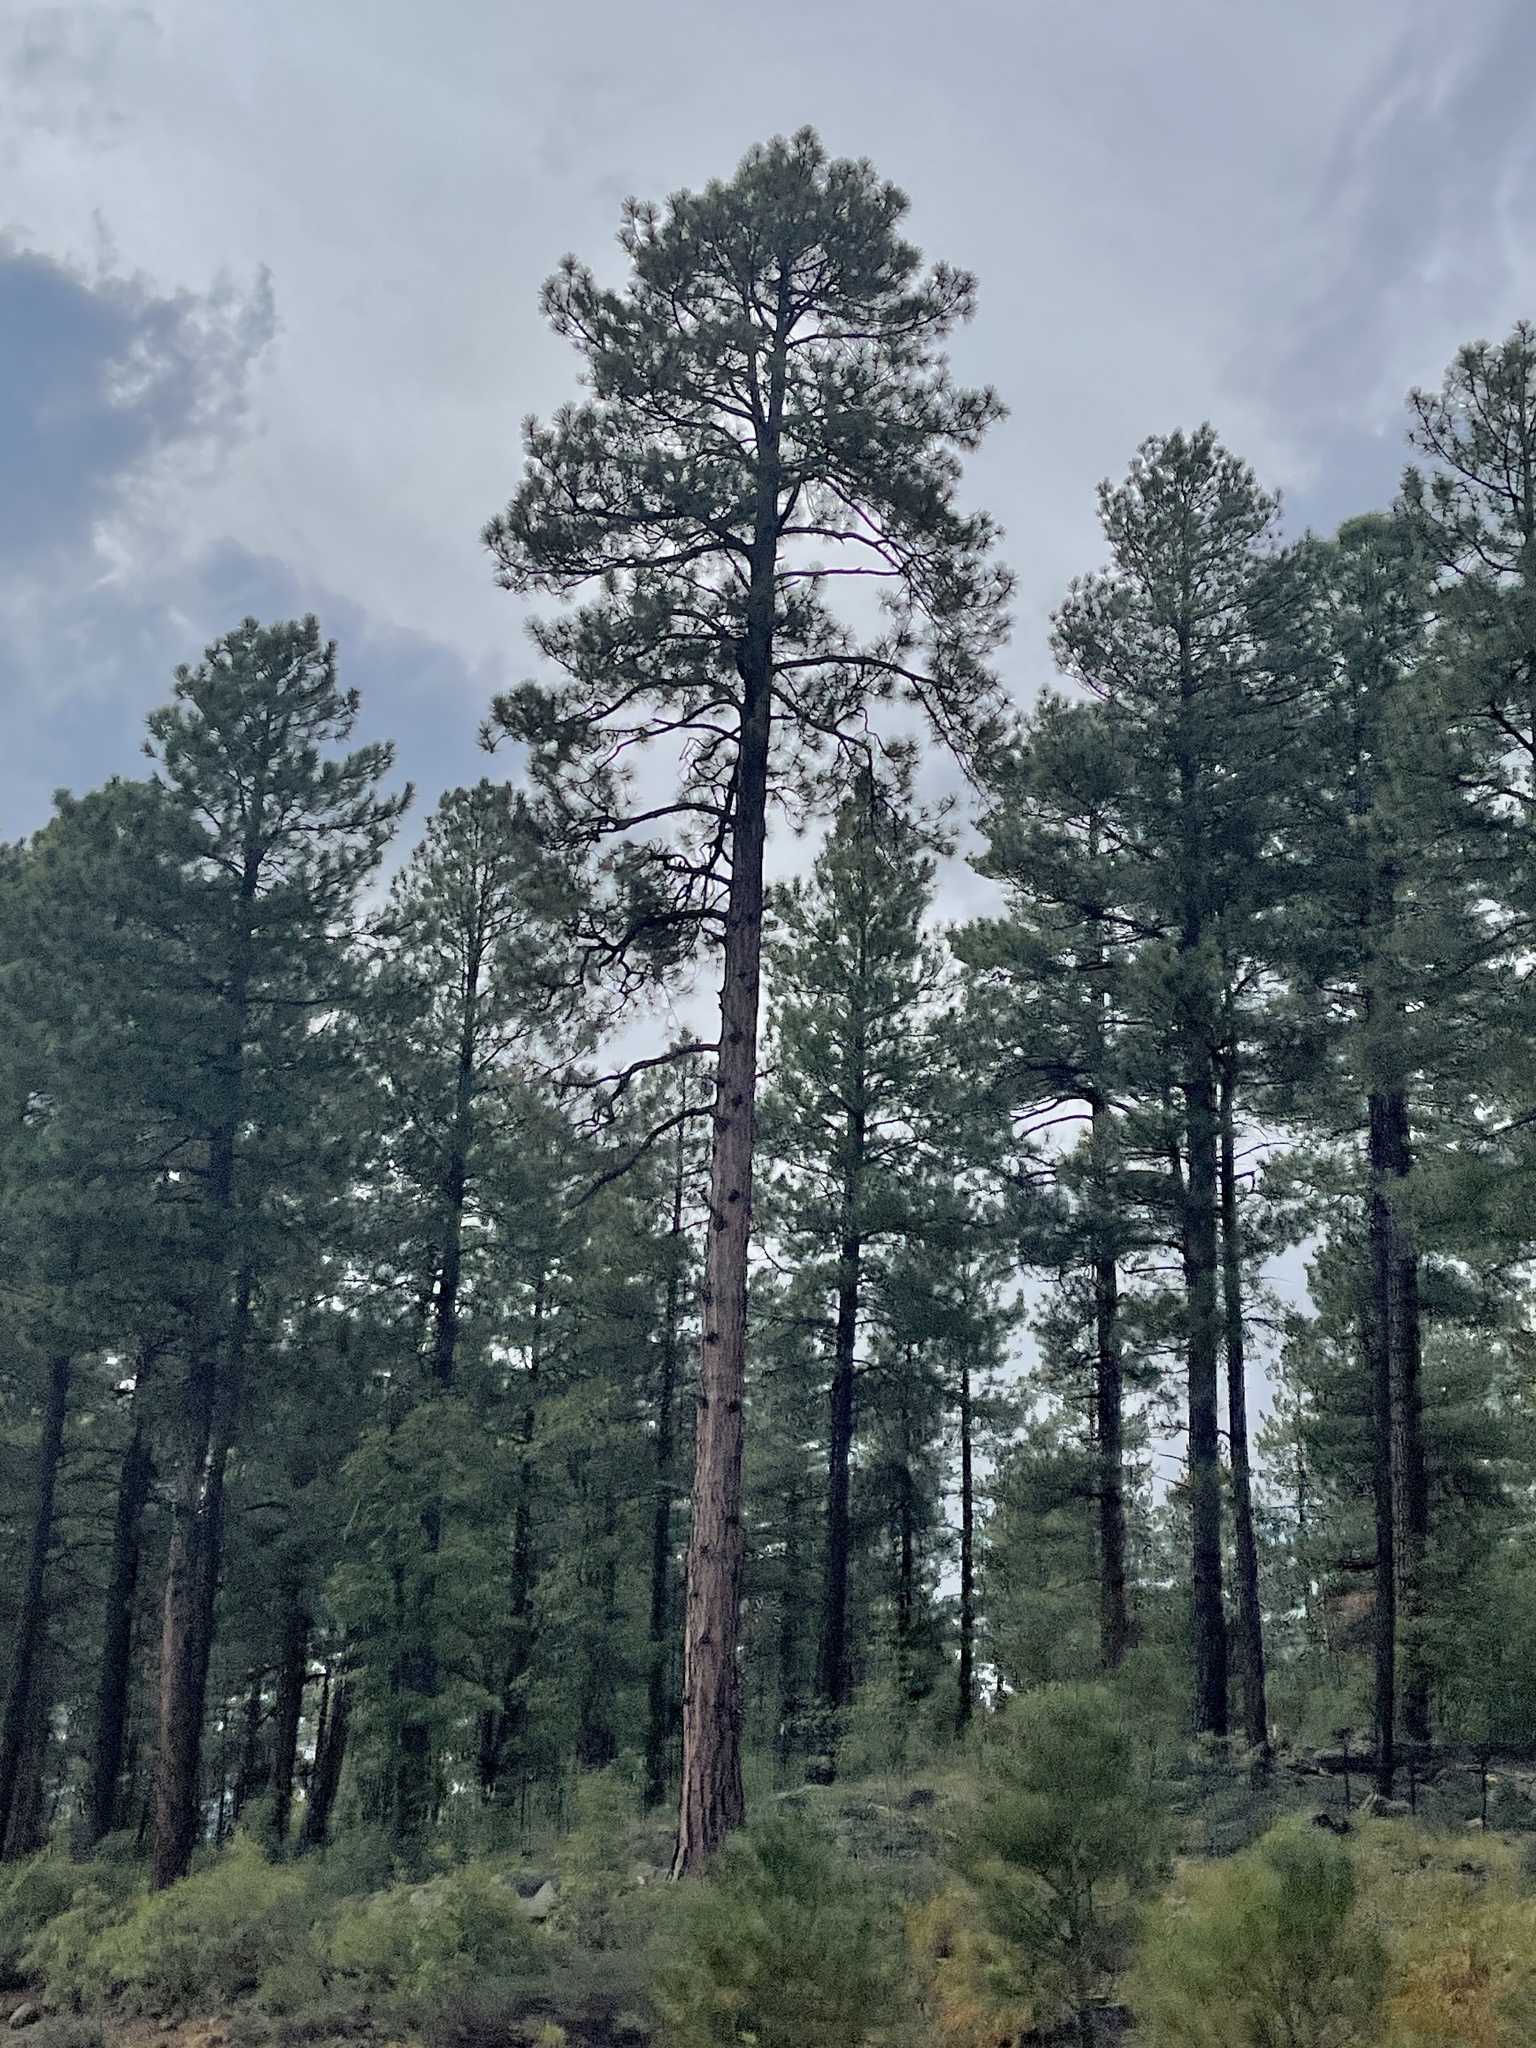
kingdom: Plantae
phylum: Tracheophyta
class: Pinopsida
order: Pinales
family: Pinaceae
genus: Pinus
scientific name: Pinus ponderosa
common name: Western yellow-pine
